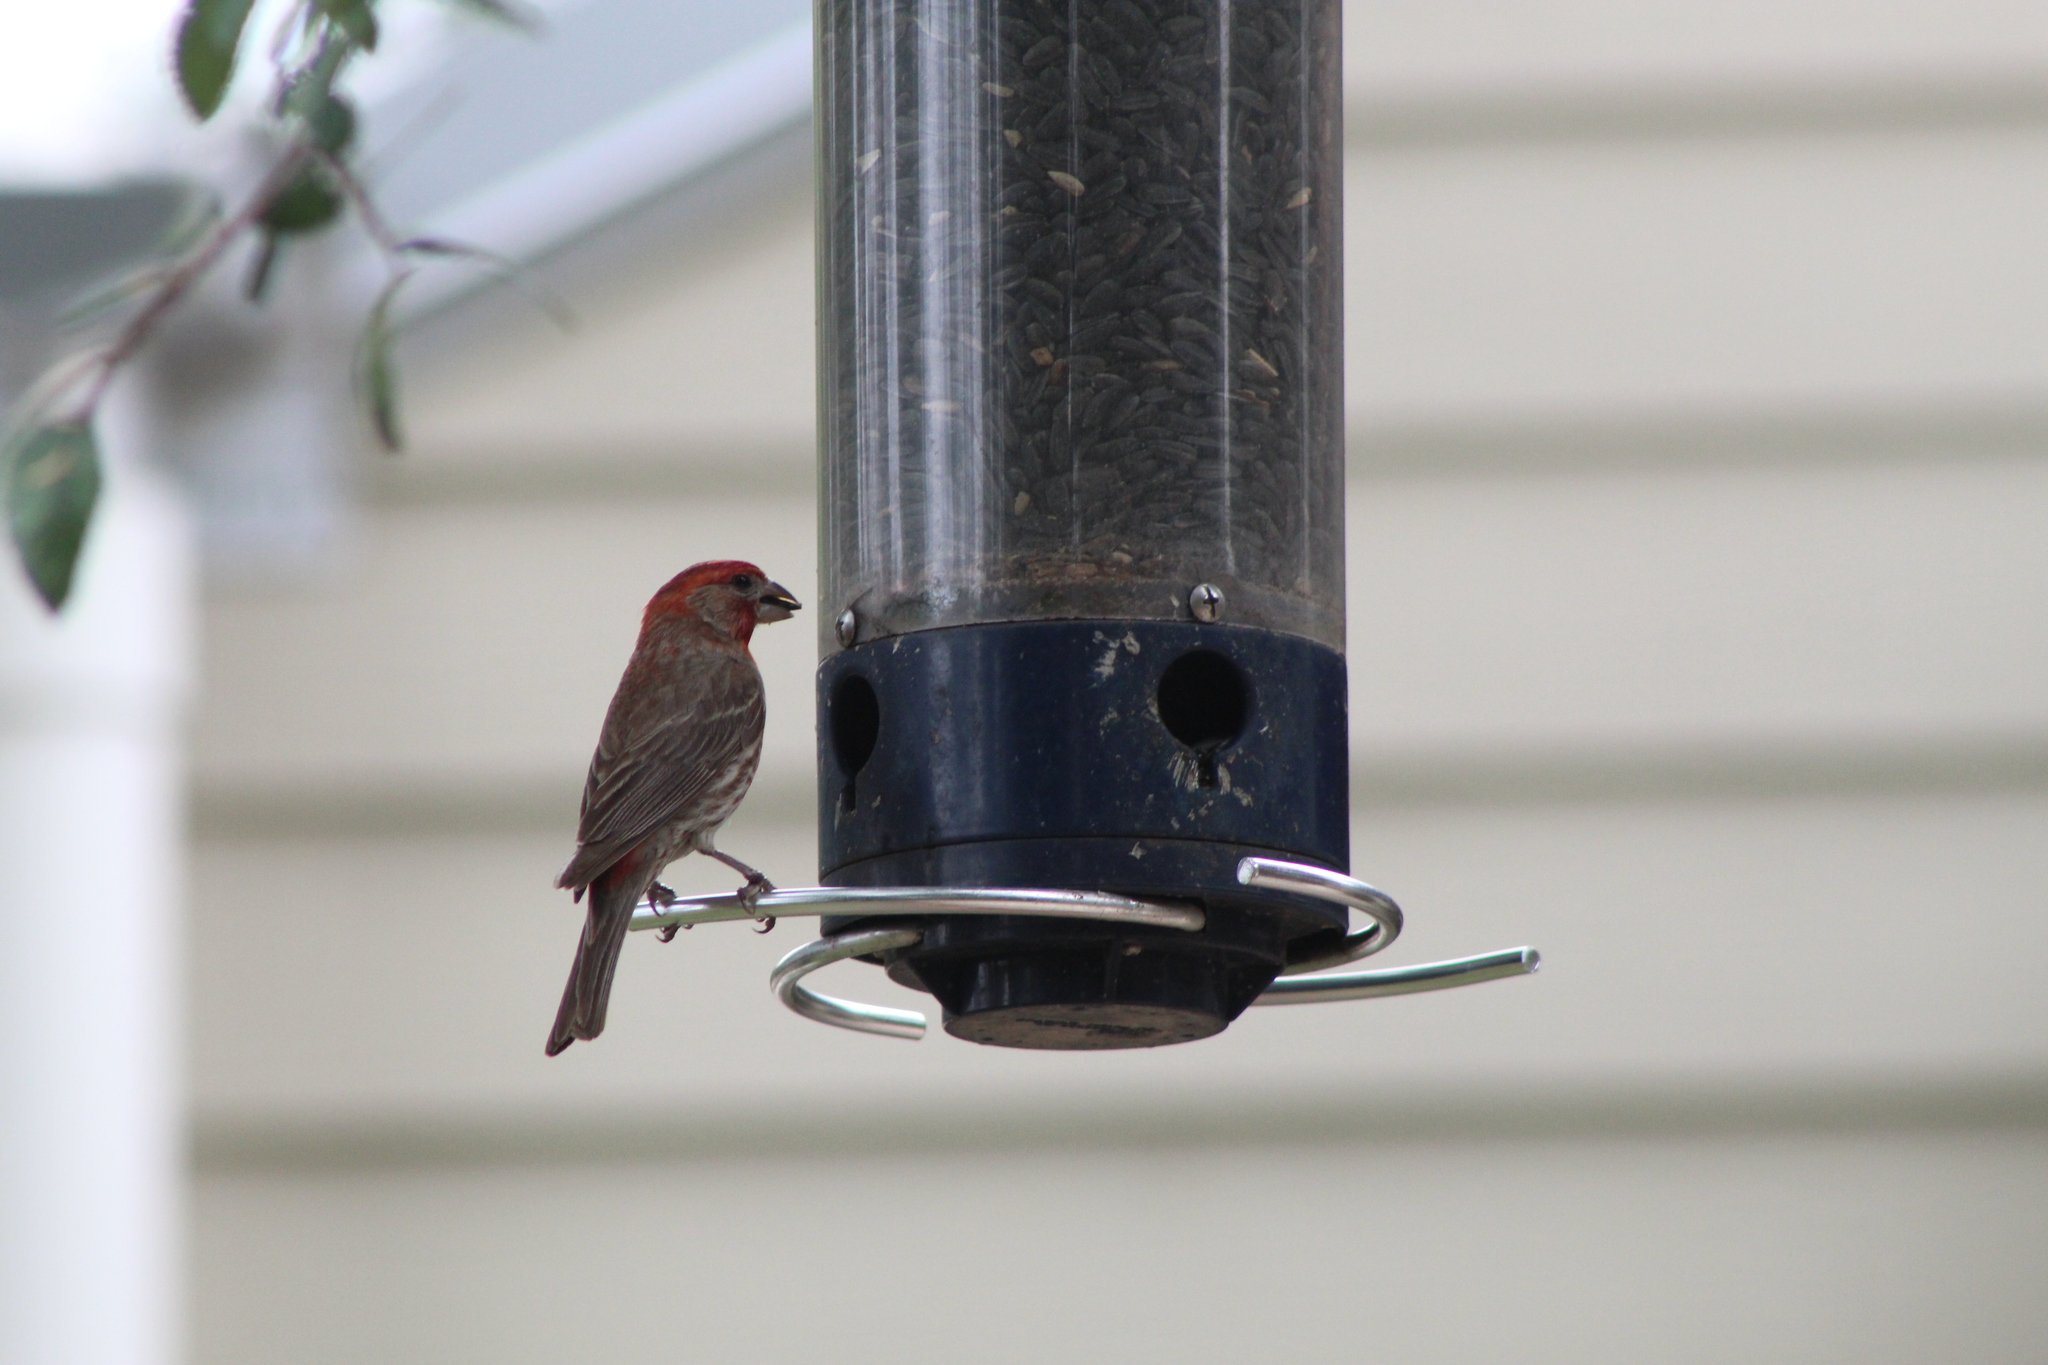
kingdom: Animalia
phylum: Chordata
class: Aves
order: Passeriformes
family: Fringillidae
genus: Haemorhous
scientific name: Haemorhous mexicanus
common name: House finch
